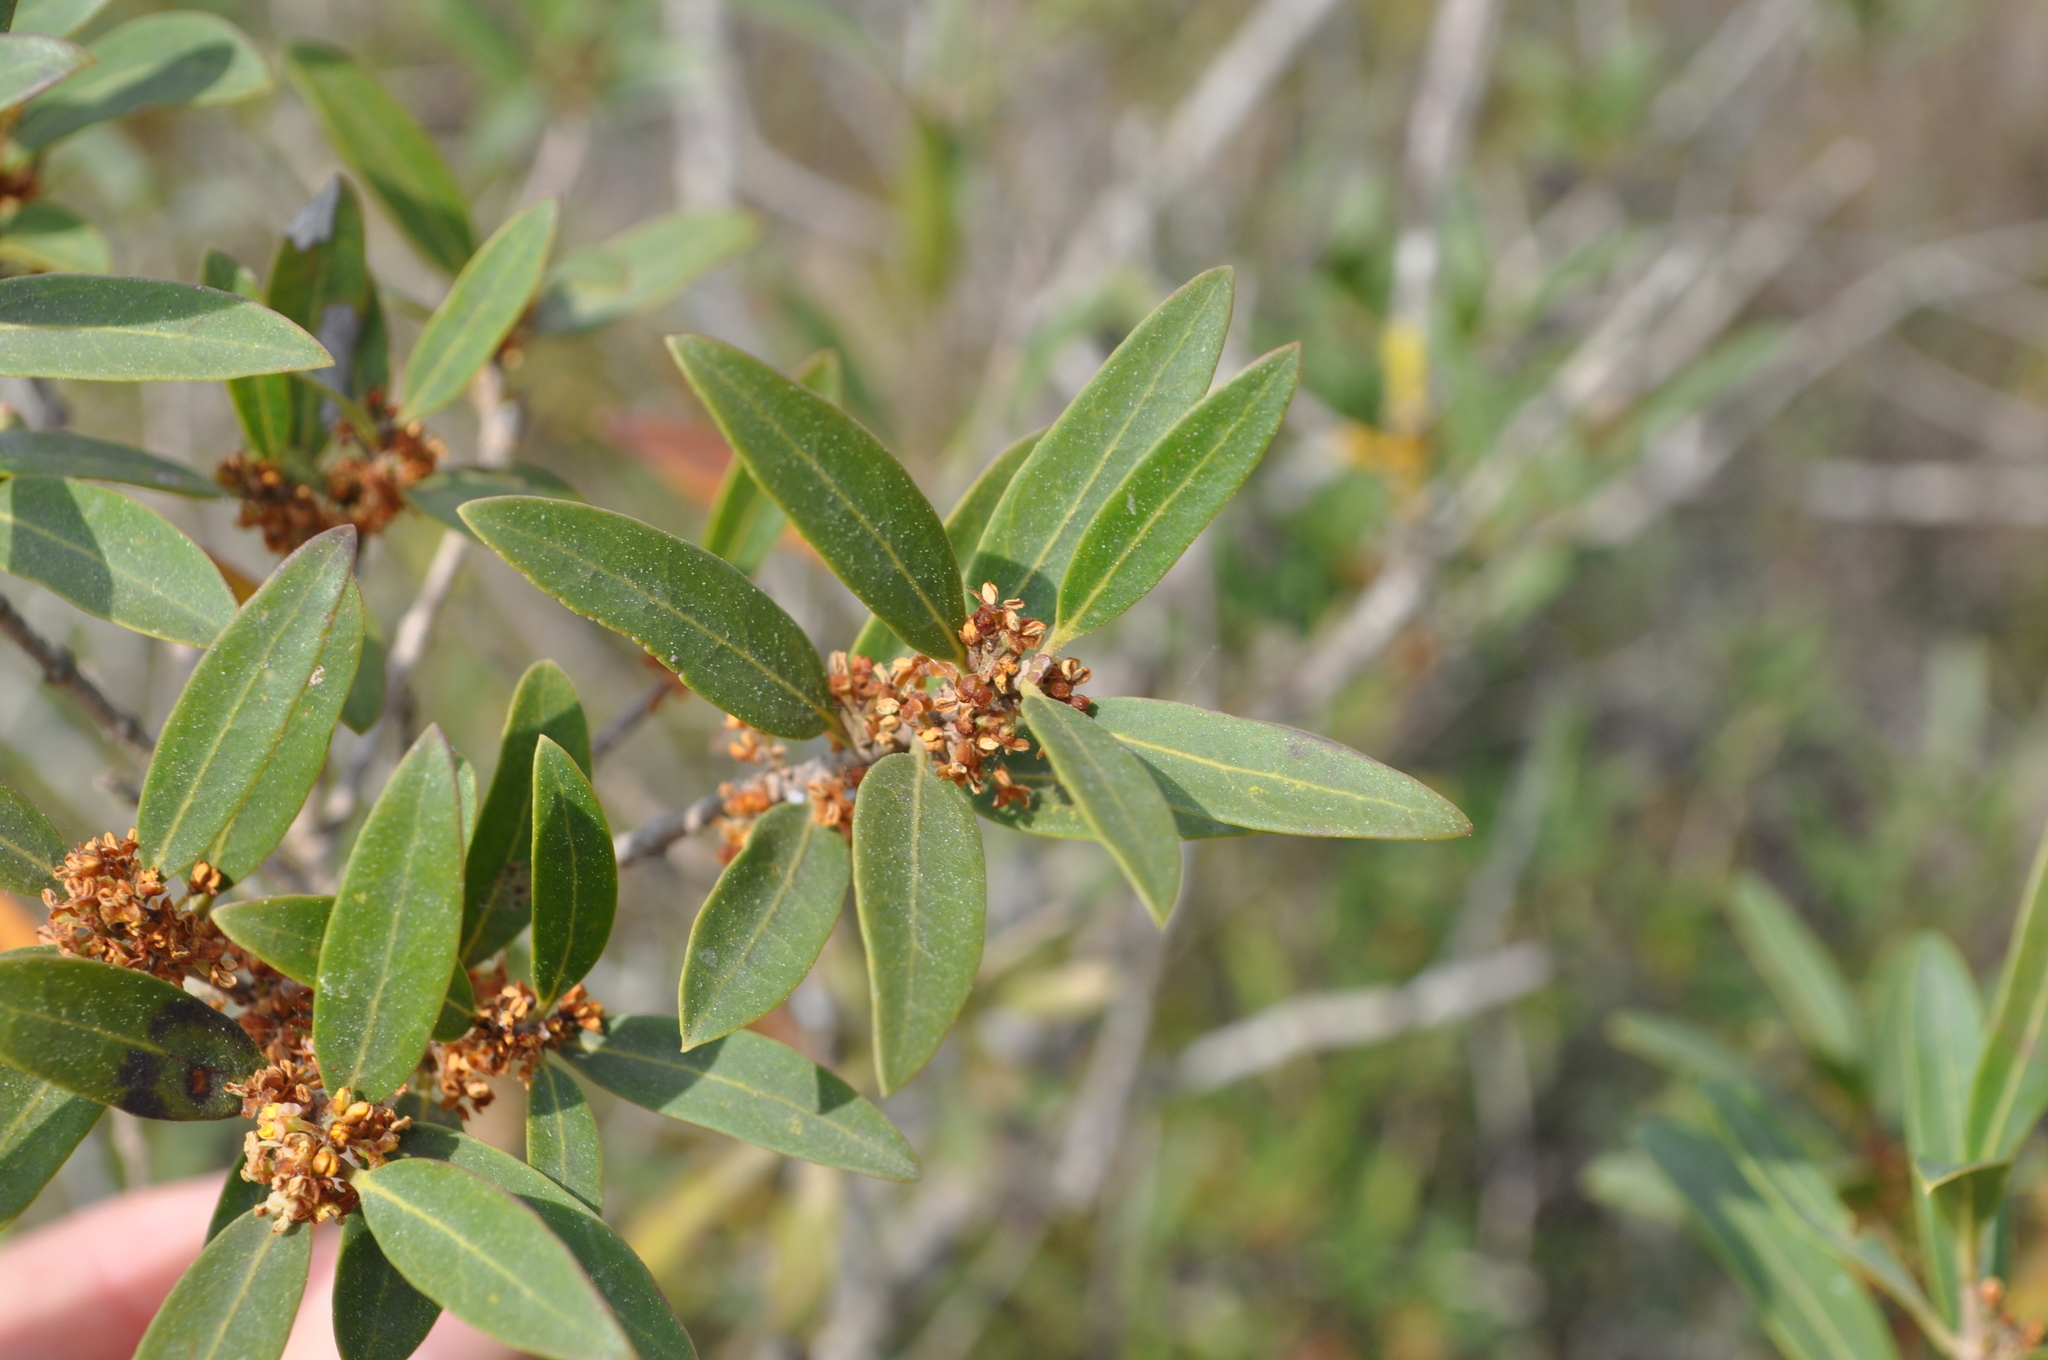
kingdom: Plantae
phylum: Tracheophyta
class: Magnoliopsida
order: Lamiales
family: Oleaceae
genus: Phillyrea
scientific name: Phillyrea angustifolia
